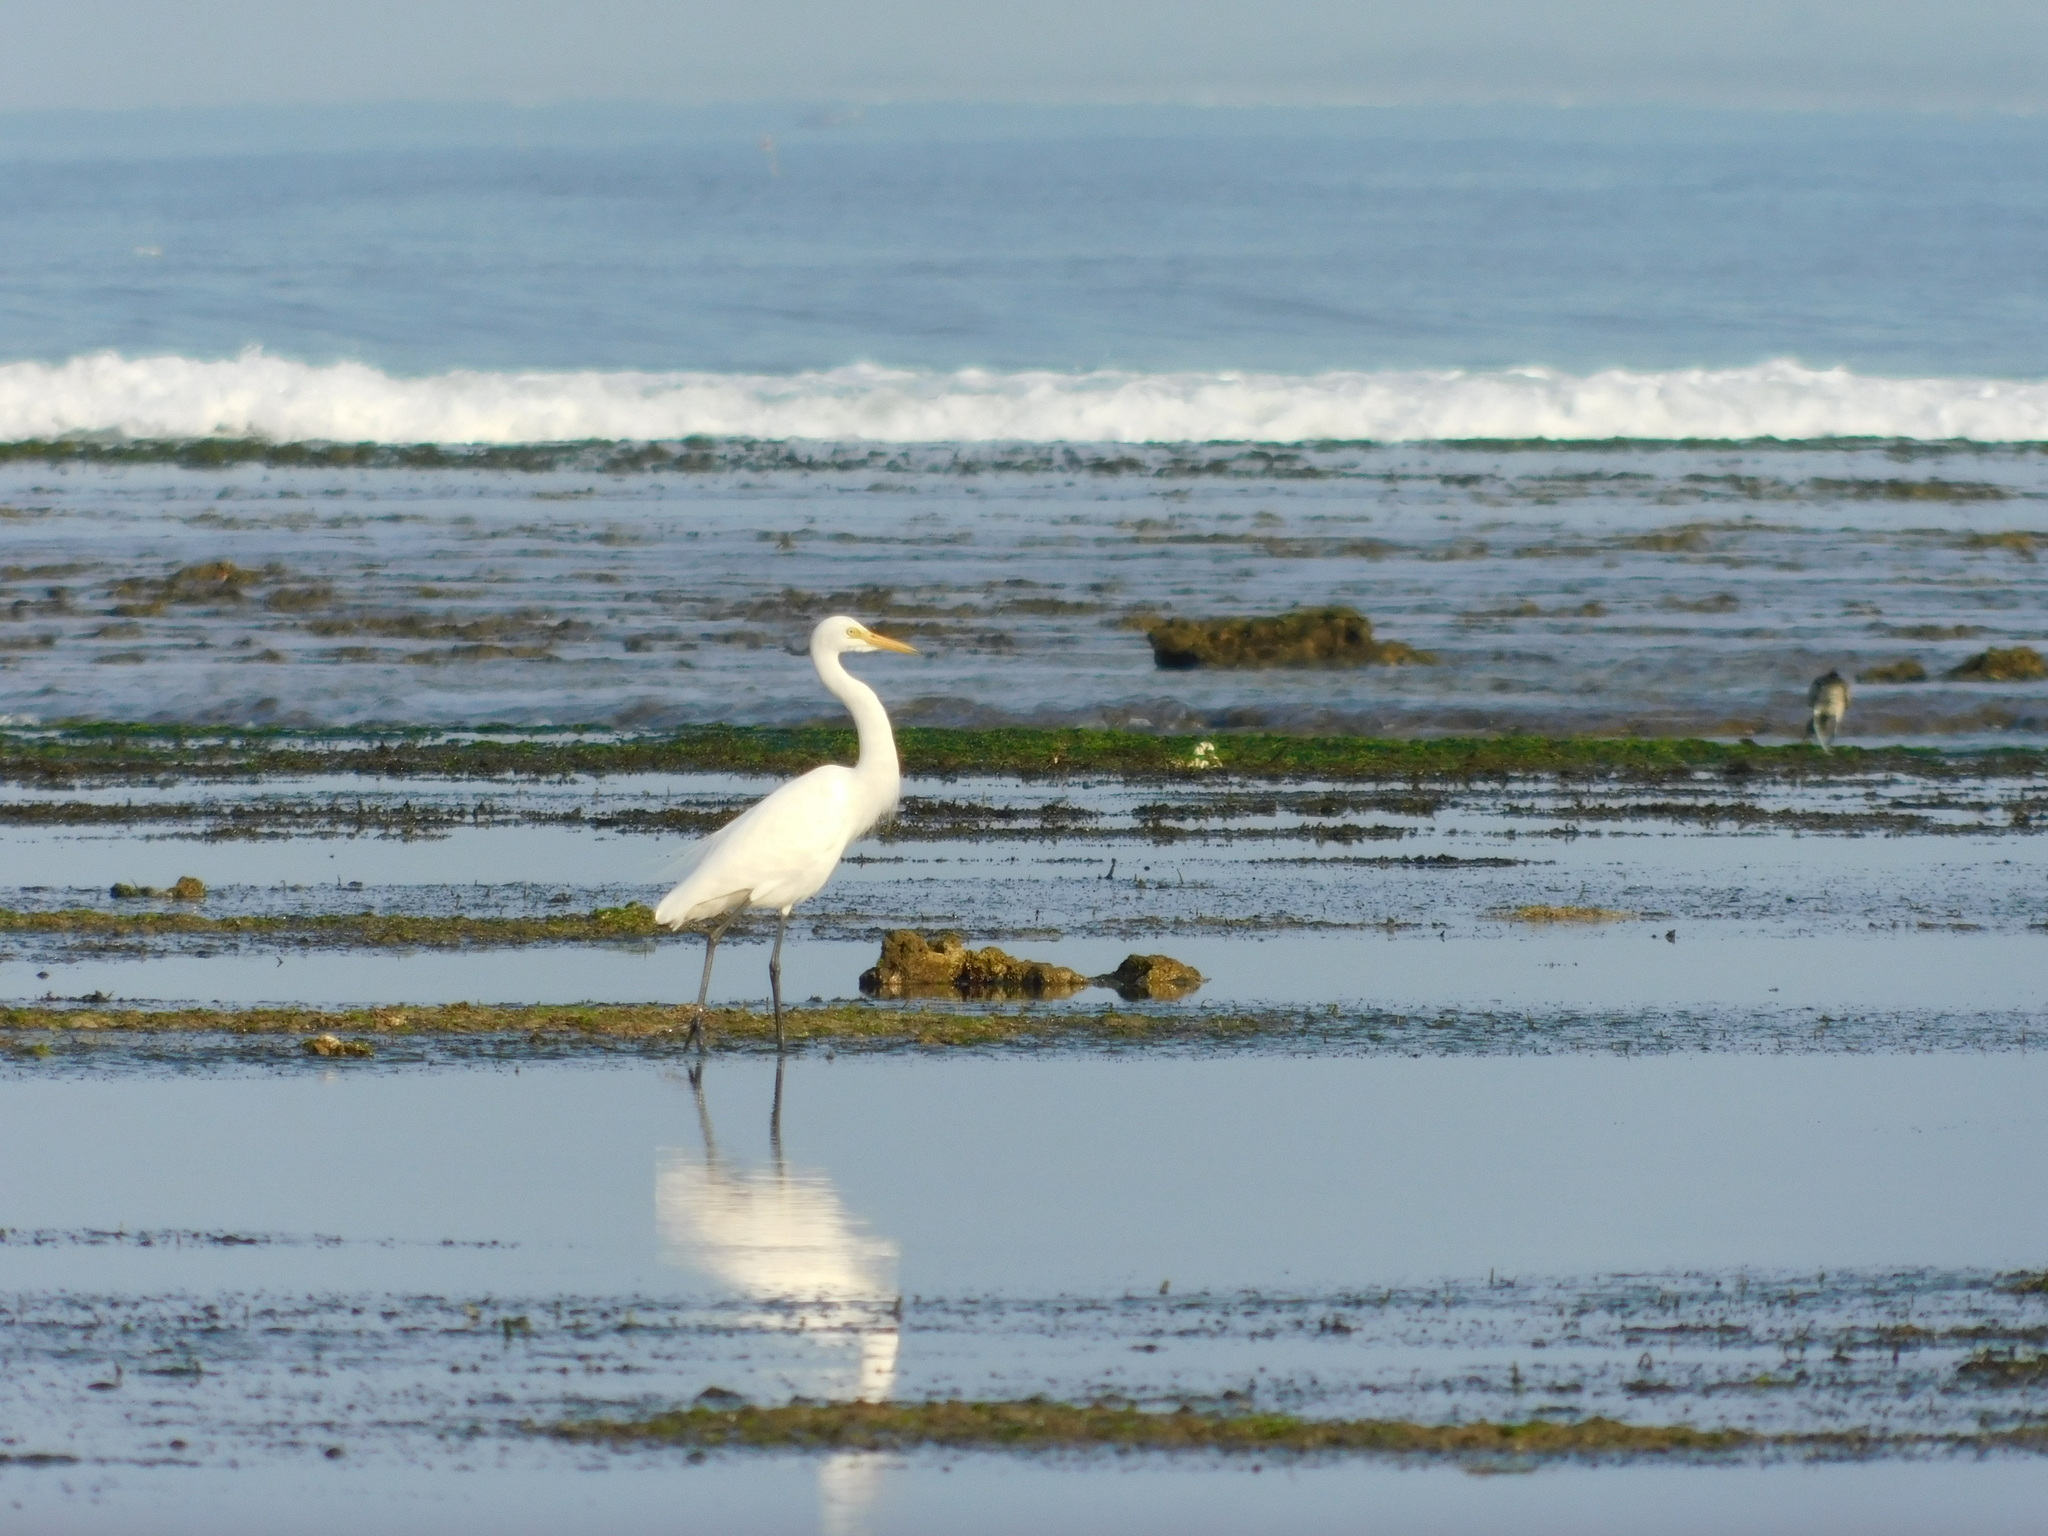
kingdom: Animalia
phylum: Chordata
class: Aves
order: Pelecaniformes
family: Ardeidae
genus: Egretta
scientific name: Egretta intermedia
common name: Intermediate egret
